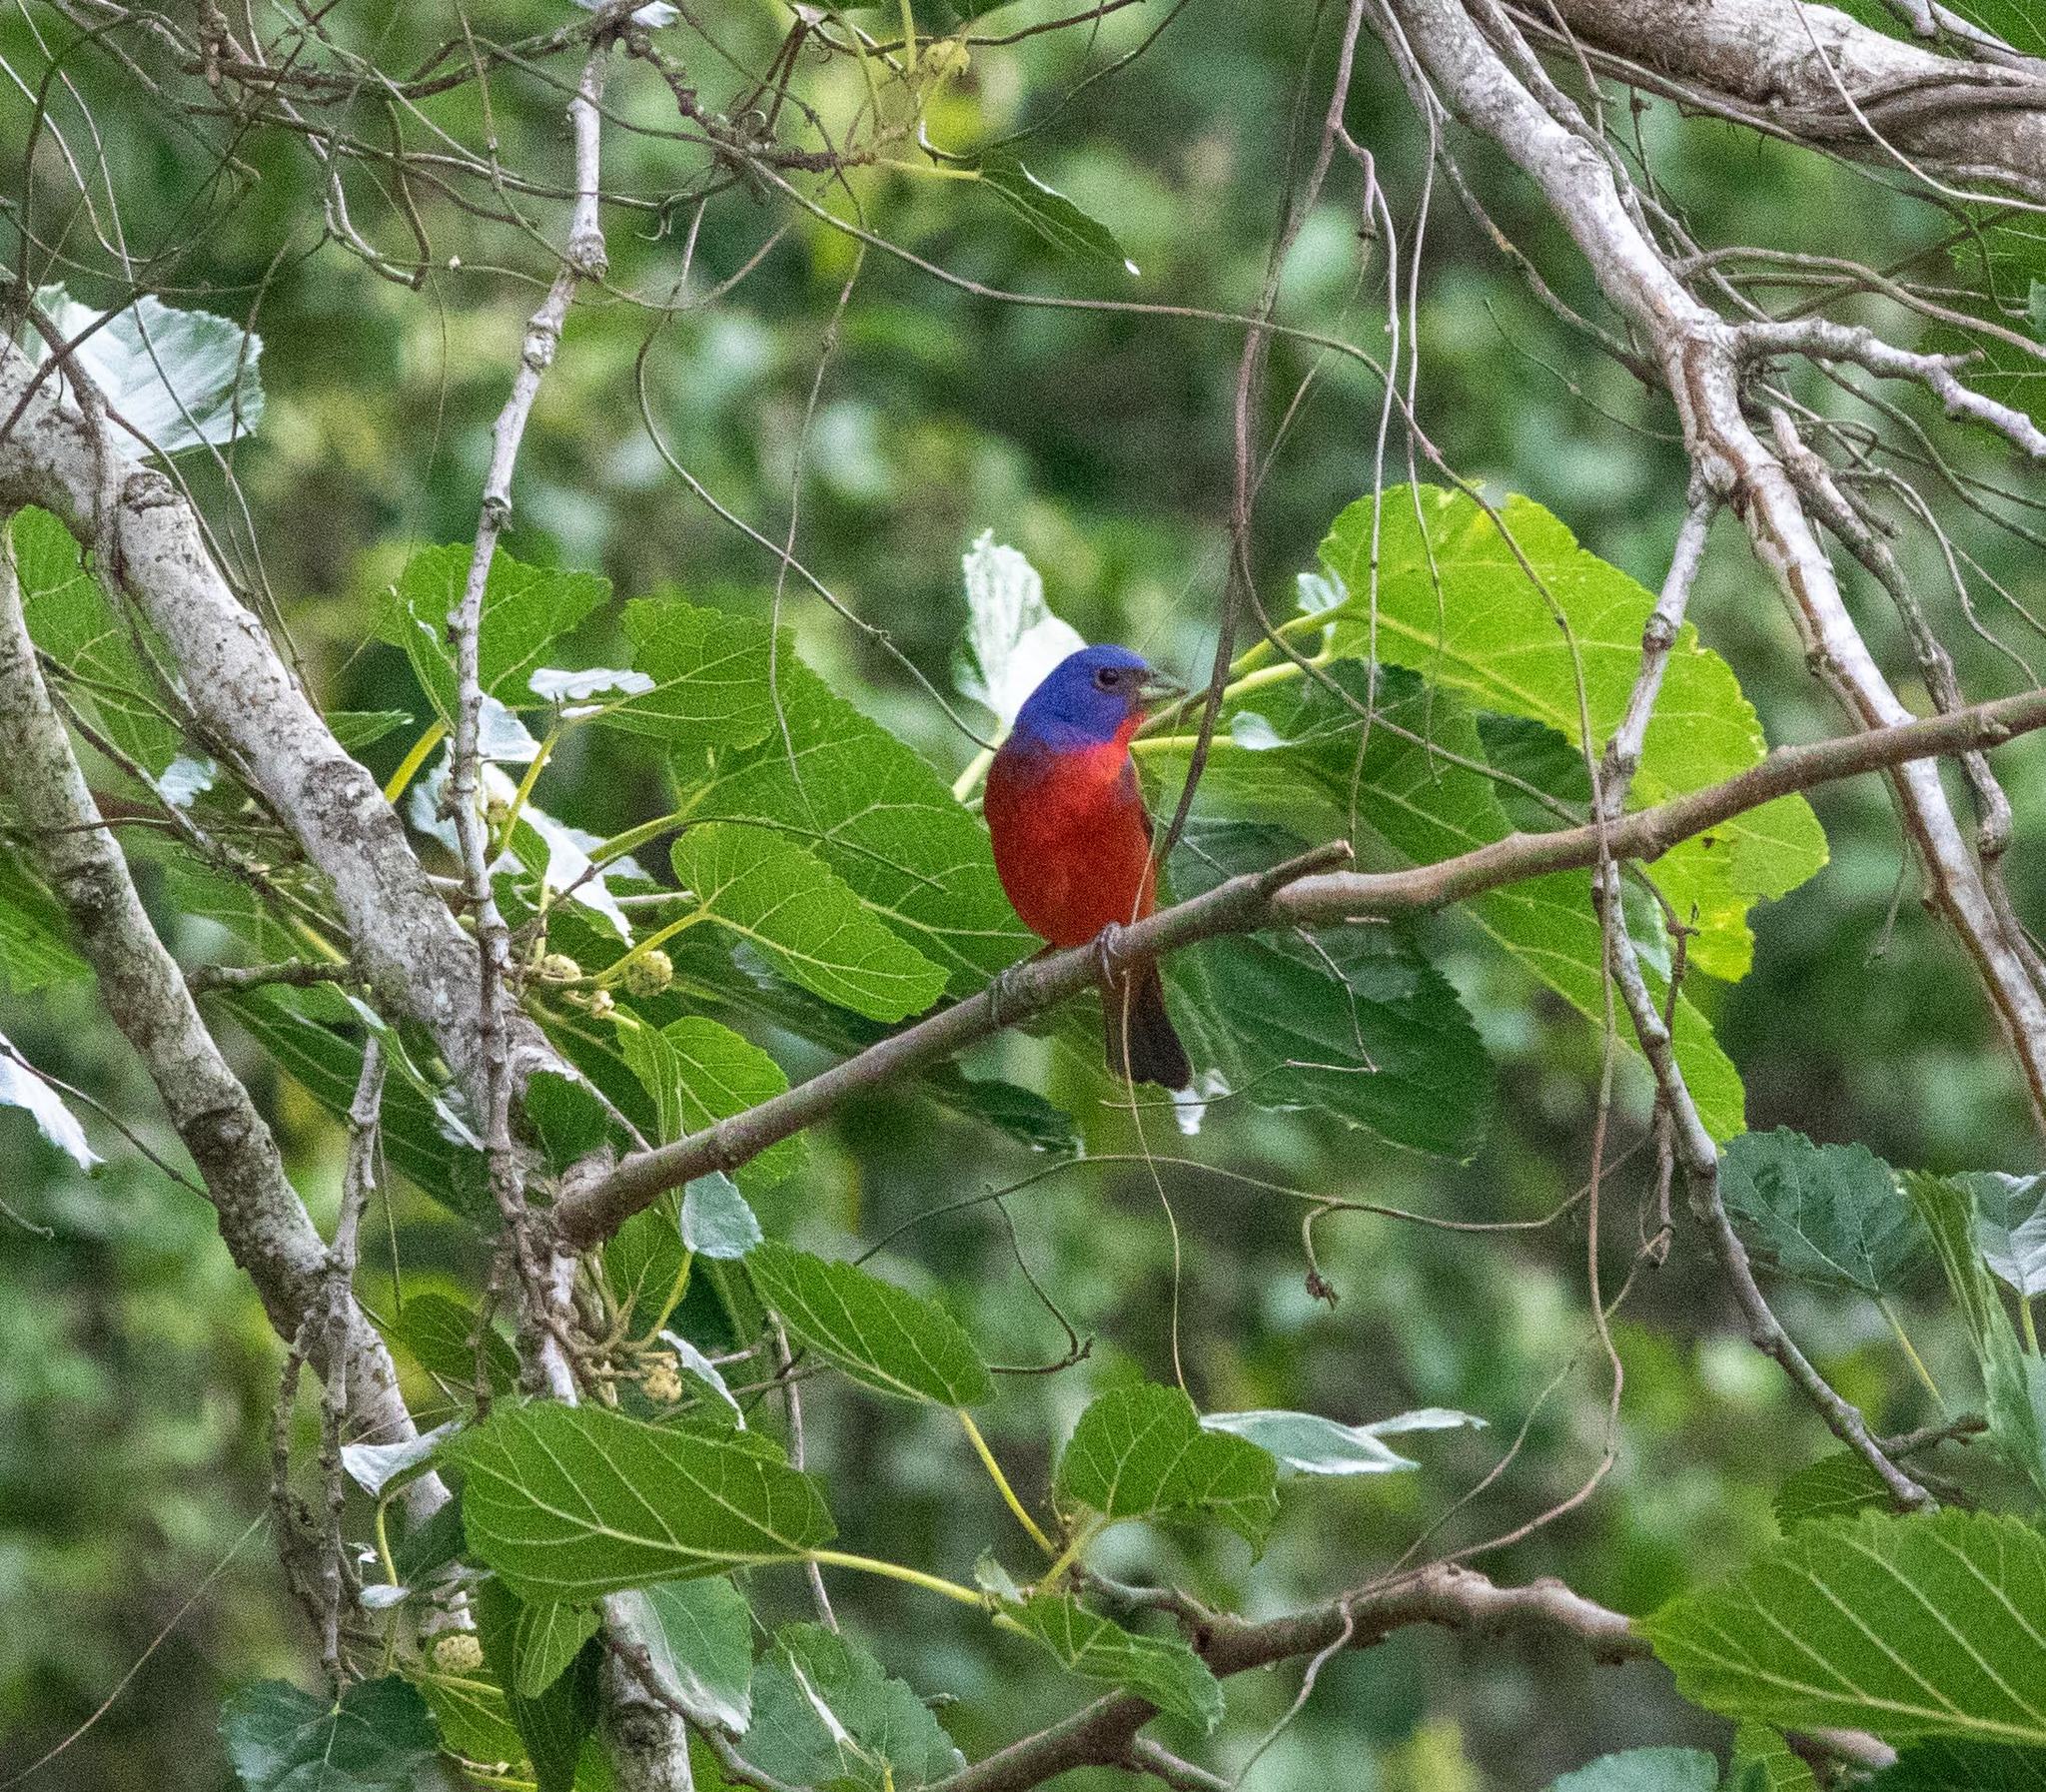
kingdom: Animalia
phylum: Chordata
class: Aves
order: Passeriformes
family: Cardinalidae
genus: Passerina
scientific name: Passerina ciris
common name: Painted bunting
